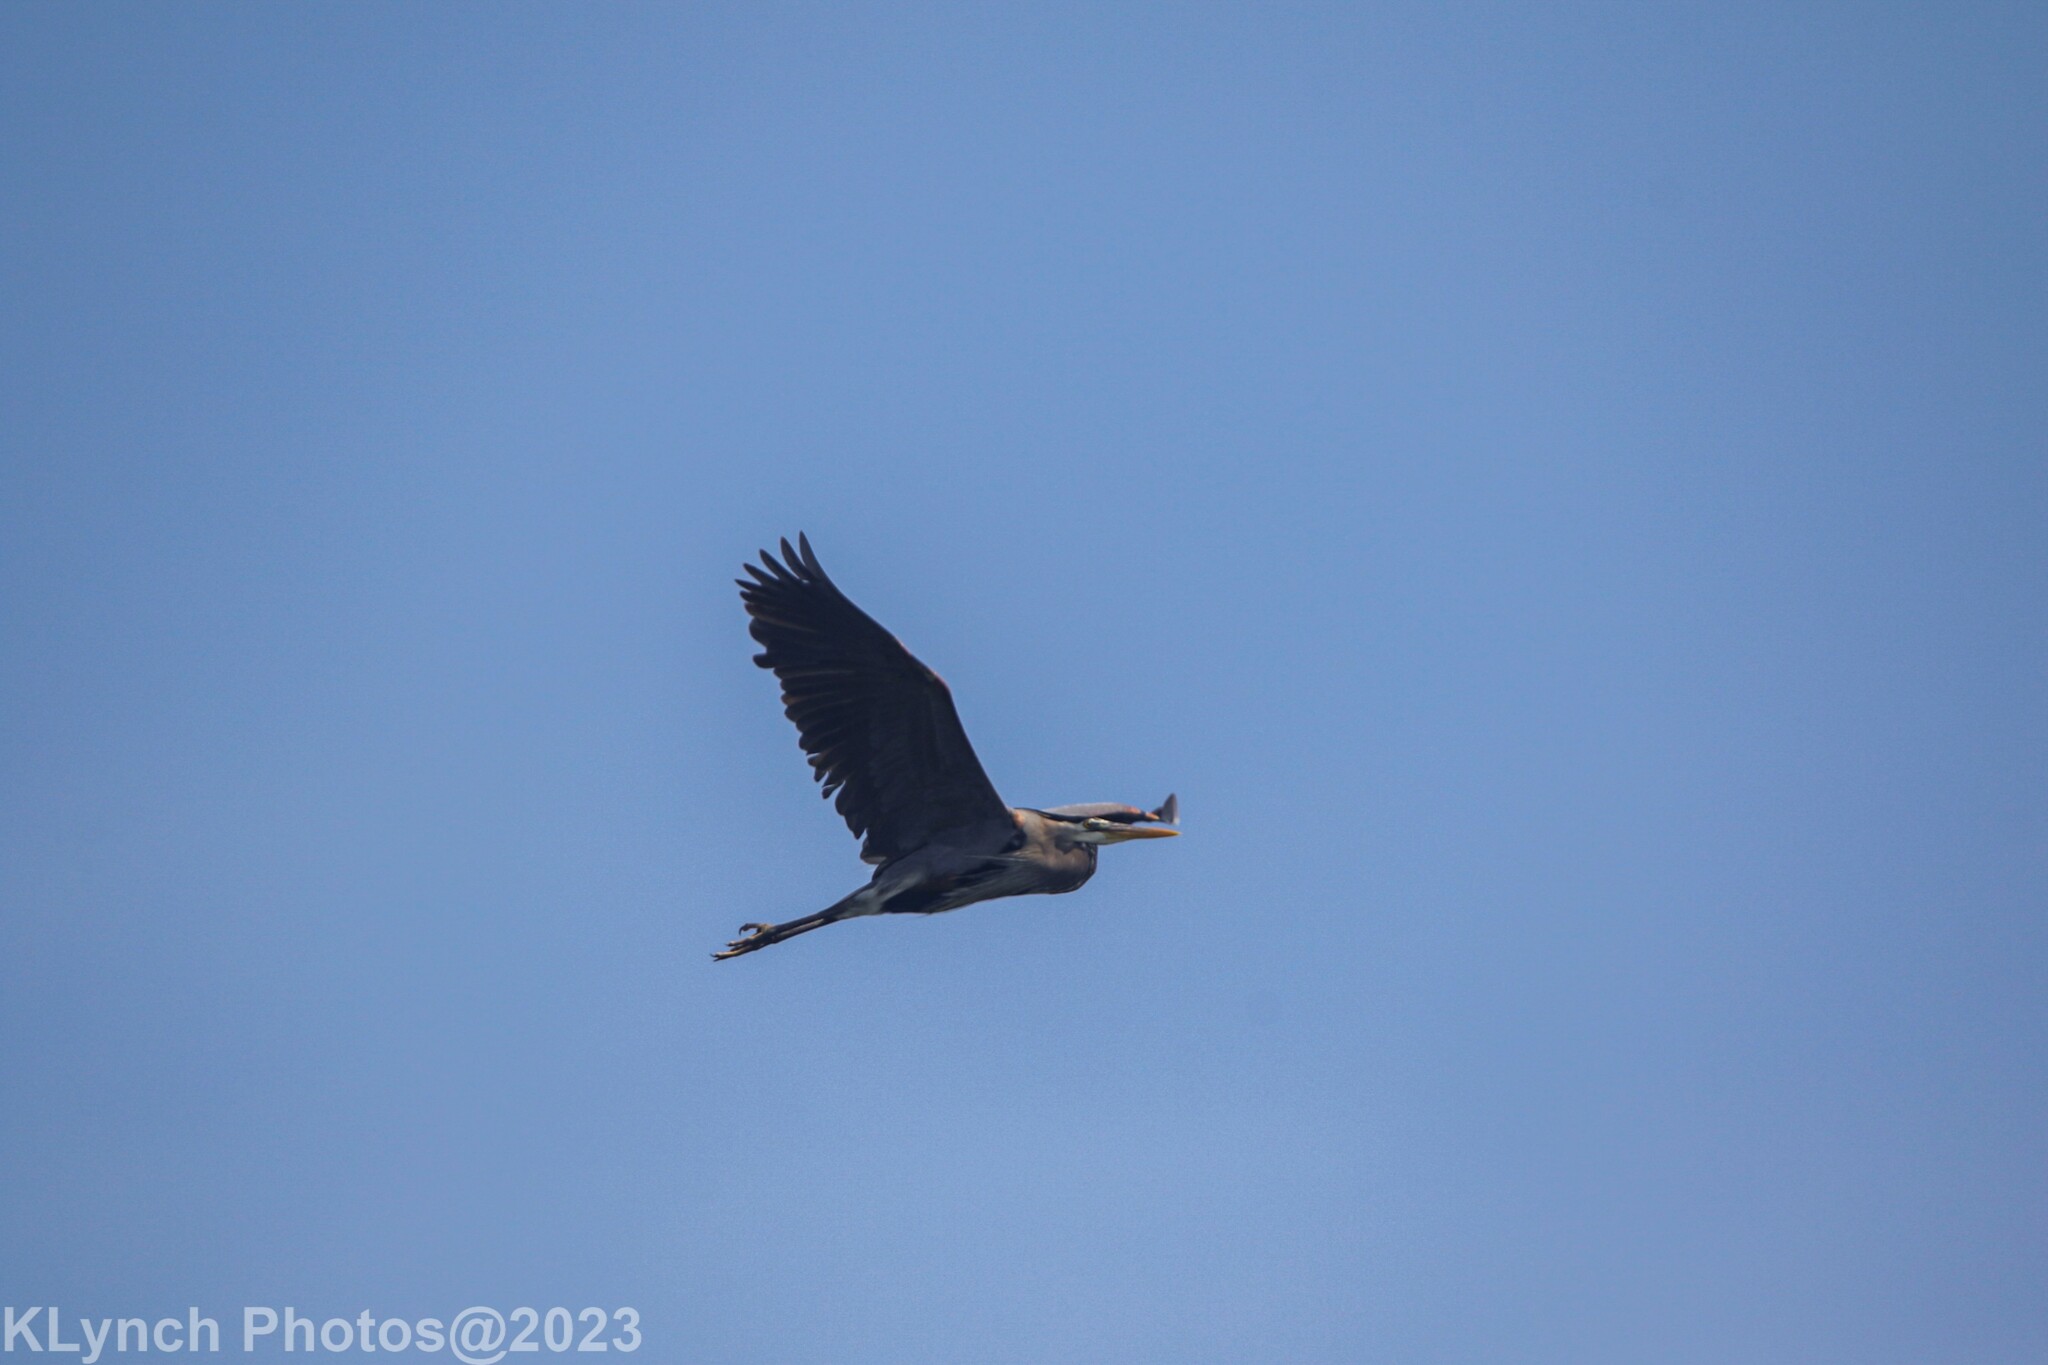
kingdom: Animalia
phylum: Chordata
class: Aves
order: Pelecaniformes
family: Ardeidae
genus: Ardea
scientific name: Ardea herodias
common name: Great blue heron
